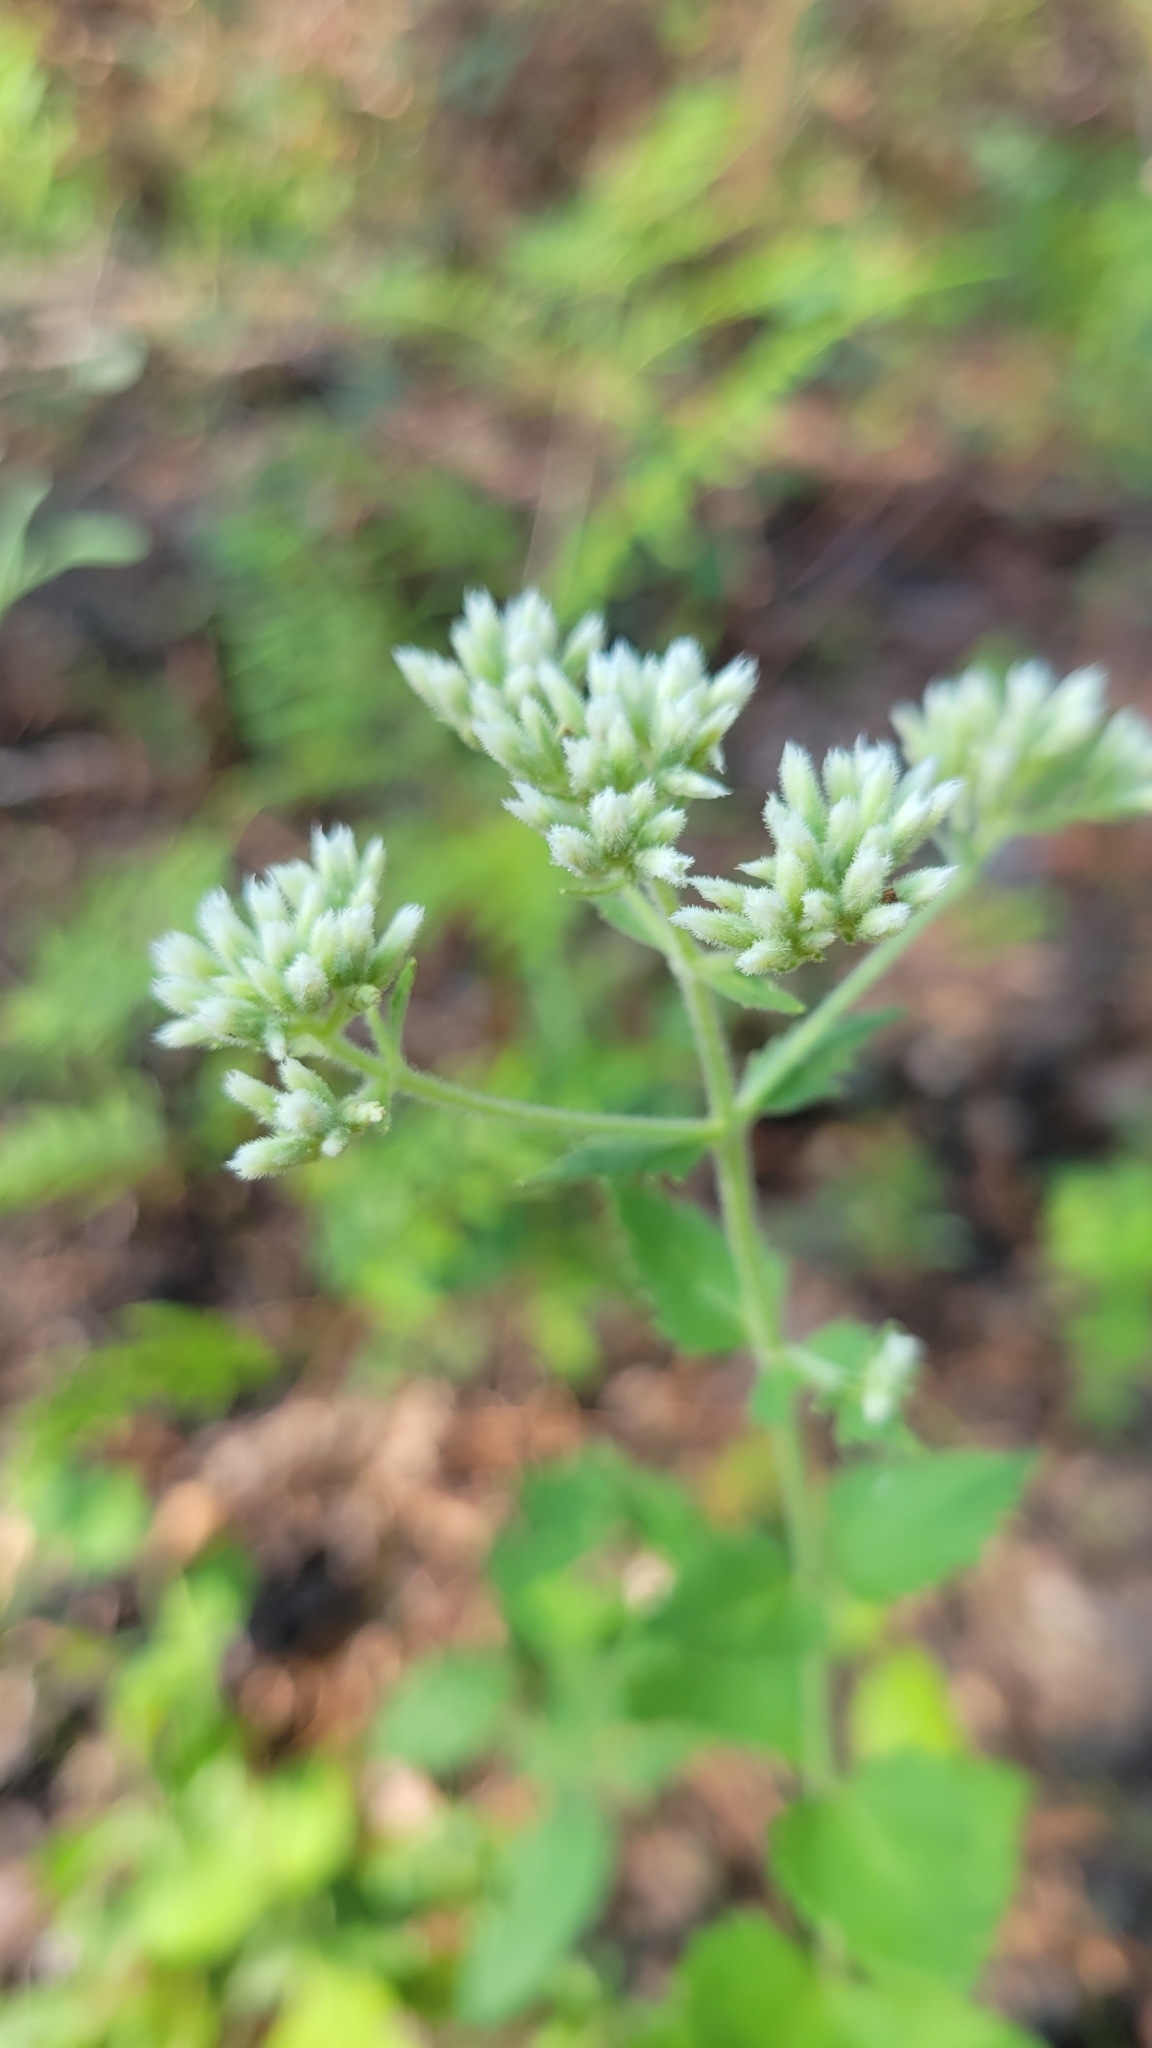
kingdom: Plantae
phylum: Tracheophyta
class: Magnoliopsida
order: Asterales
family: Asteraceae
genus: Eupatorium
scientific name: Eupatorium rotundifolium
